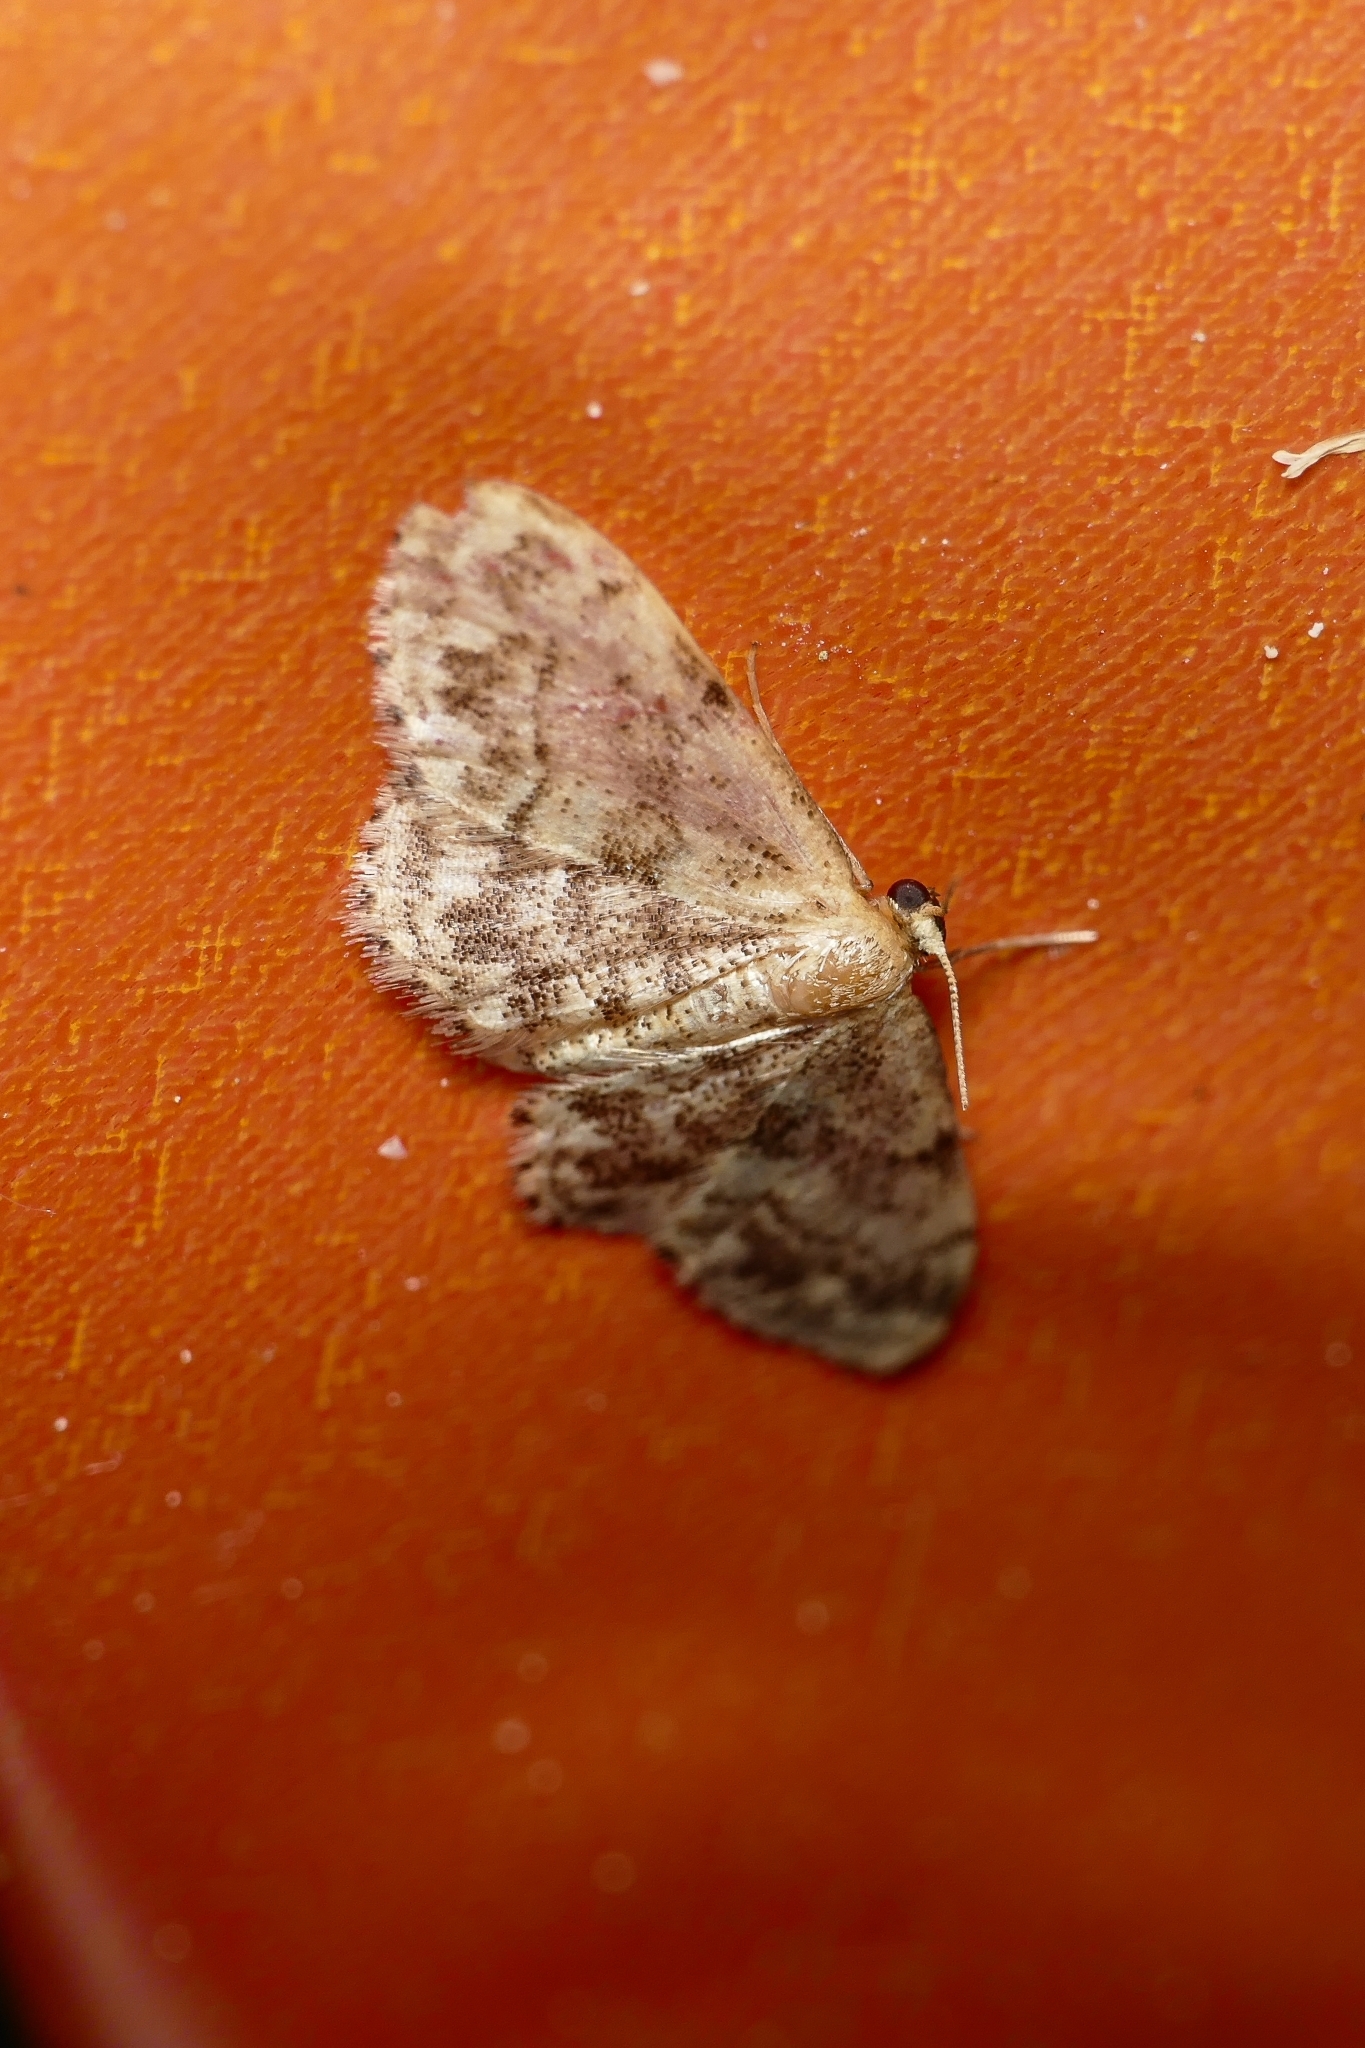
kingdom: Animalia
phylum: Arthropoda
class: Insecta
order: Lepidoptera
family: Geometridae
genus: Idaea
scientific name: Idaea inquinata
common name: Rusty wave
